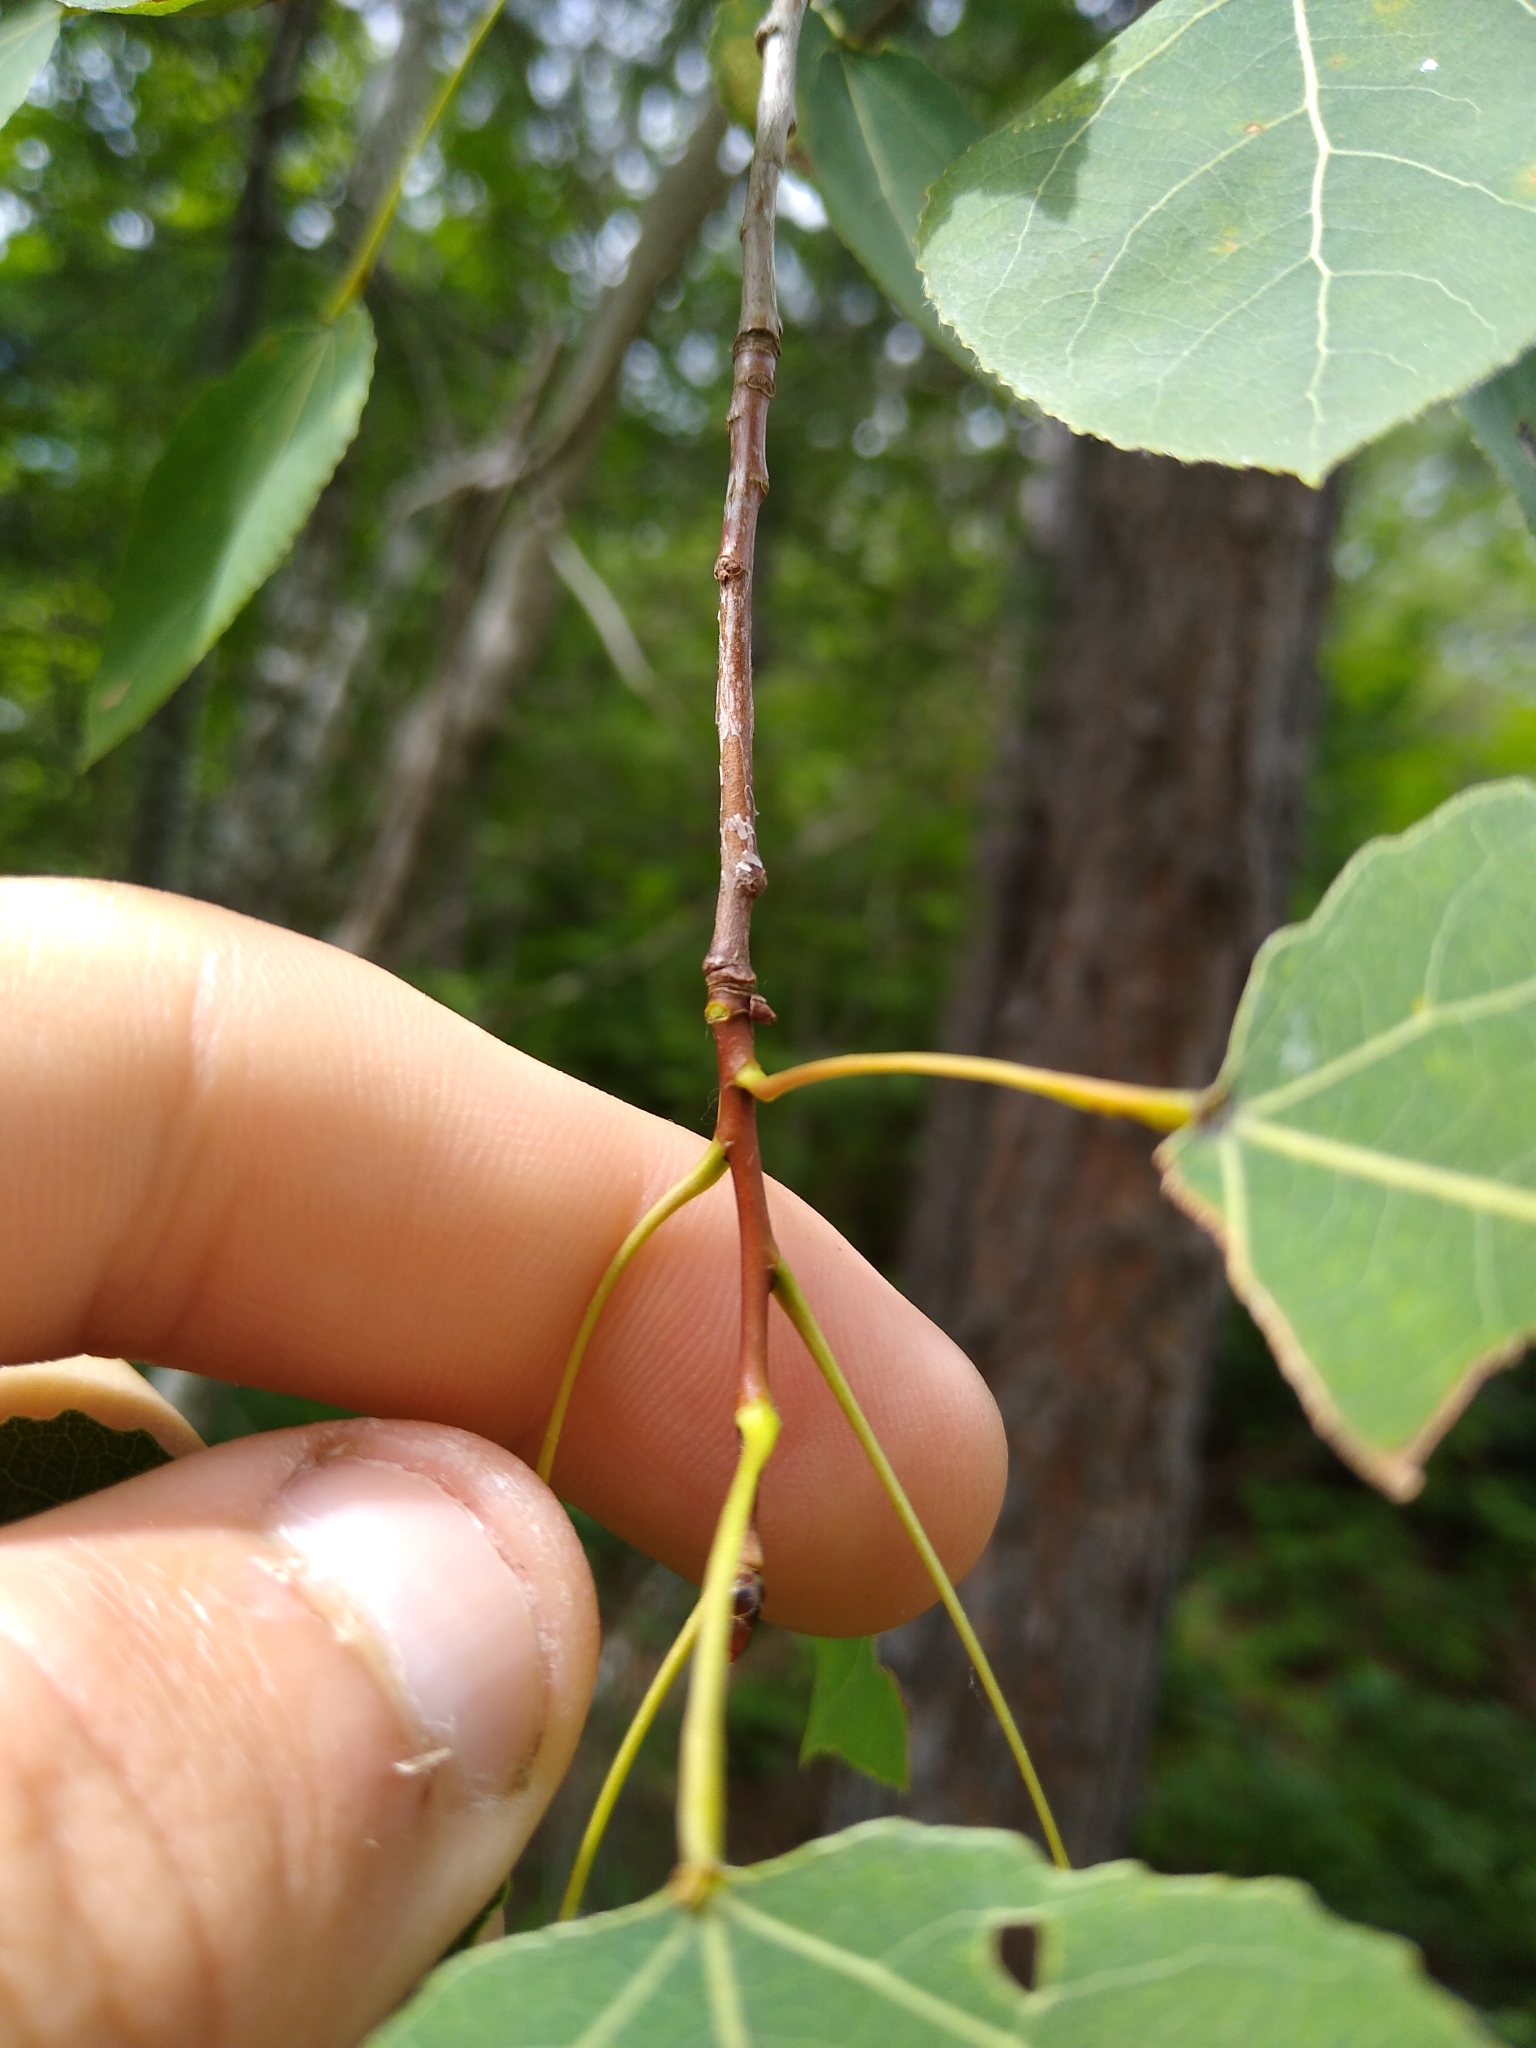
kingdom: Plantae
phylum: Tracheophyta
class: Magnoliopsida
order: Malpighiales
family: Salicaceae
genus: Populus
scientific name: Populus tremuloides
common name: Quaking aspen
